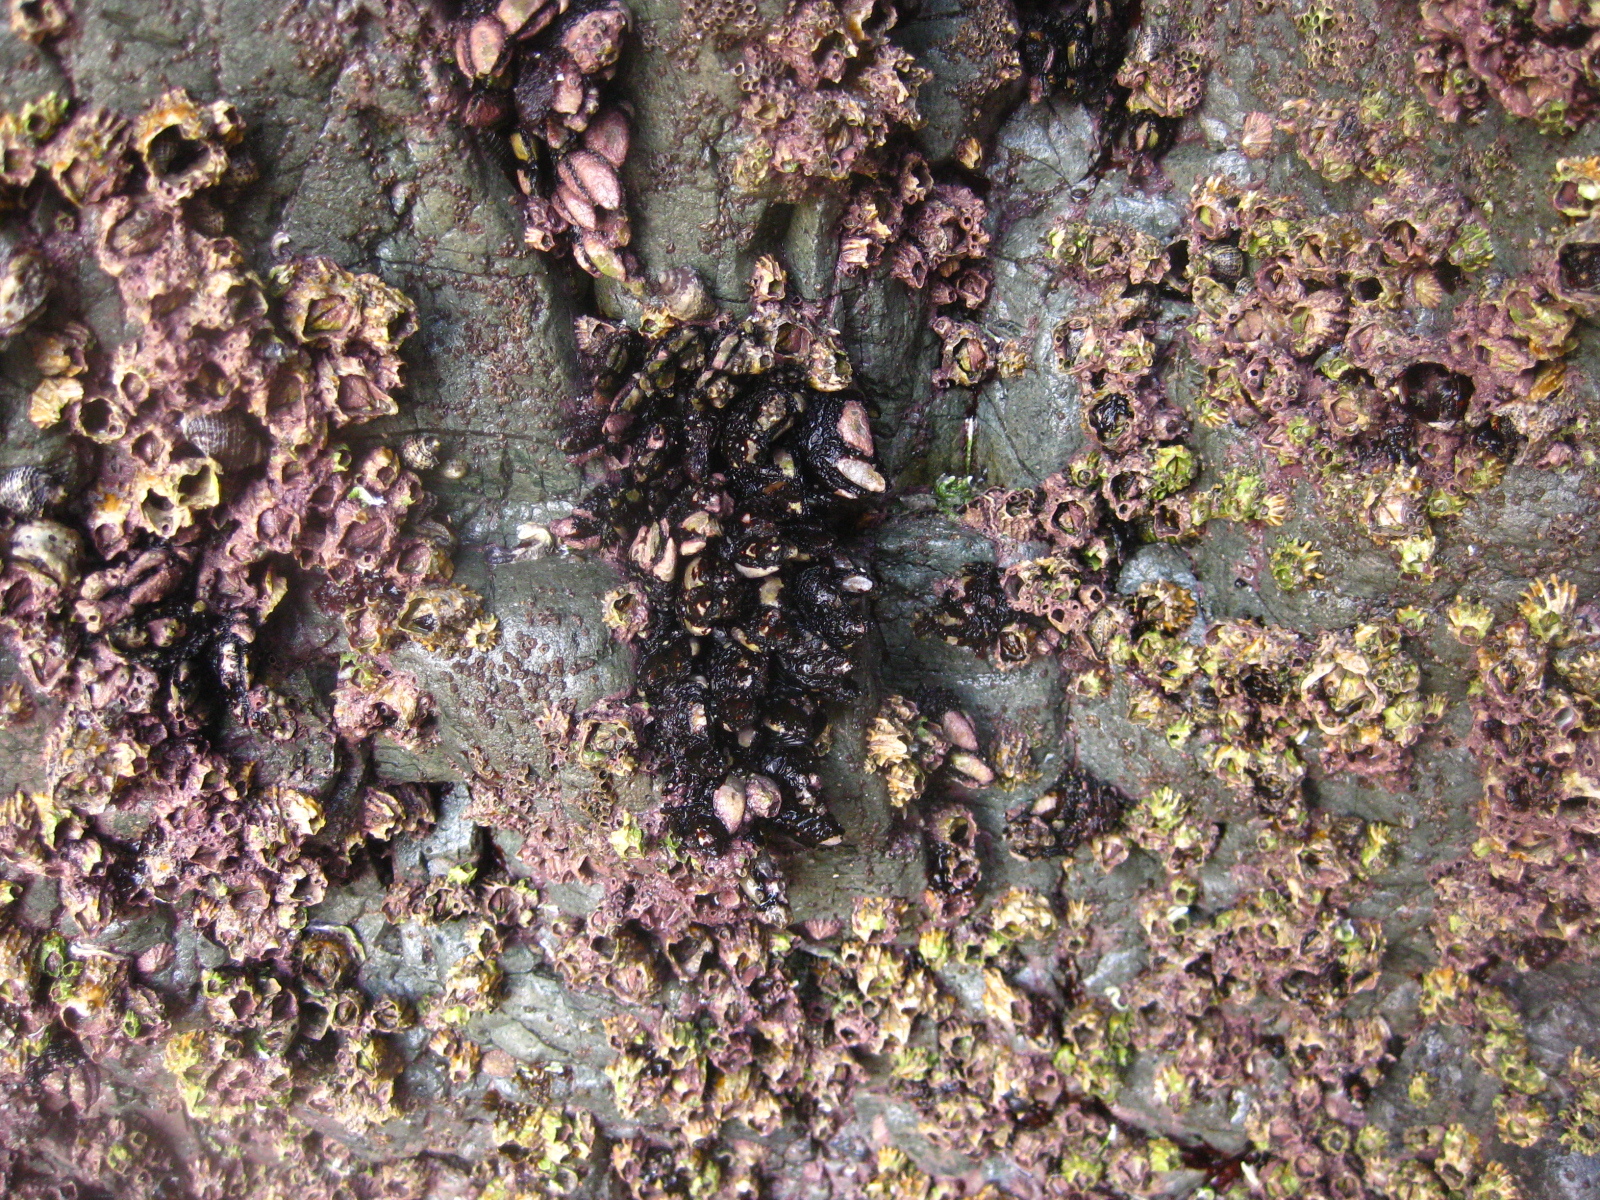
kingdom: Animalia
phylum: Arthropoda
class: Maxillopoda
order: Pedunculata
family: Calanticidae
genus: Calantica
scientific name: Calantica spinosa
